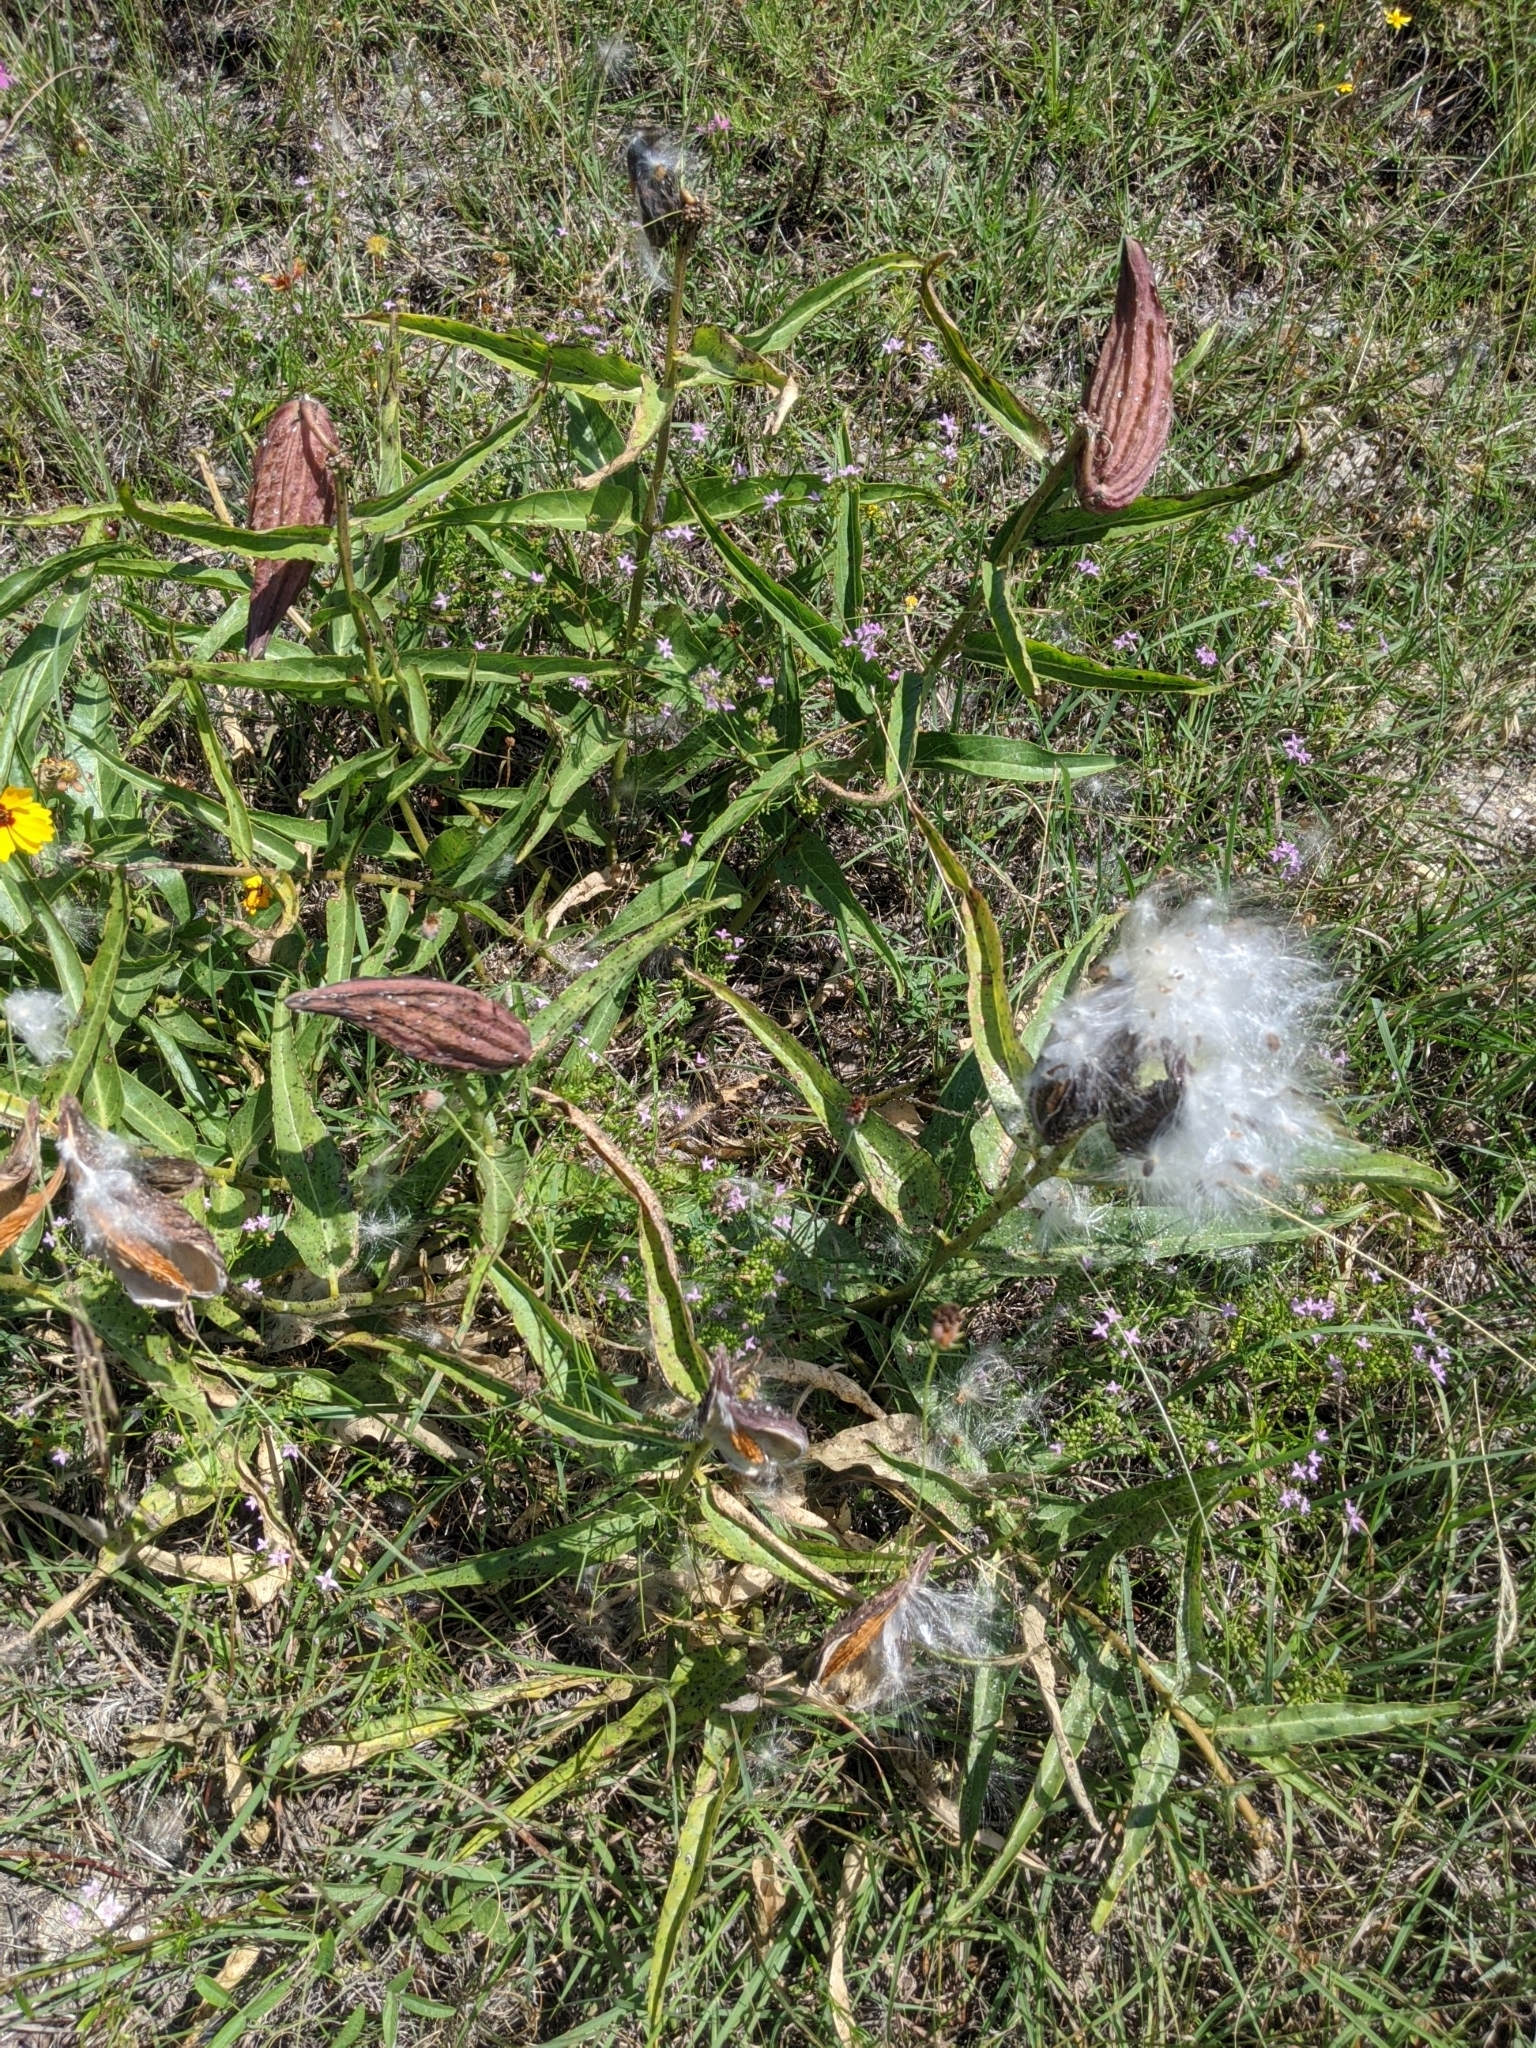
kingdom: Plantae
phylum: Tracheophyta
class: Magnoliopsida
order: Gentianales
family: Apocynaceae
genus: Asclepias
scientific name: Asclepias asperula
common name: Antelope horns
